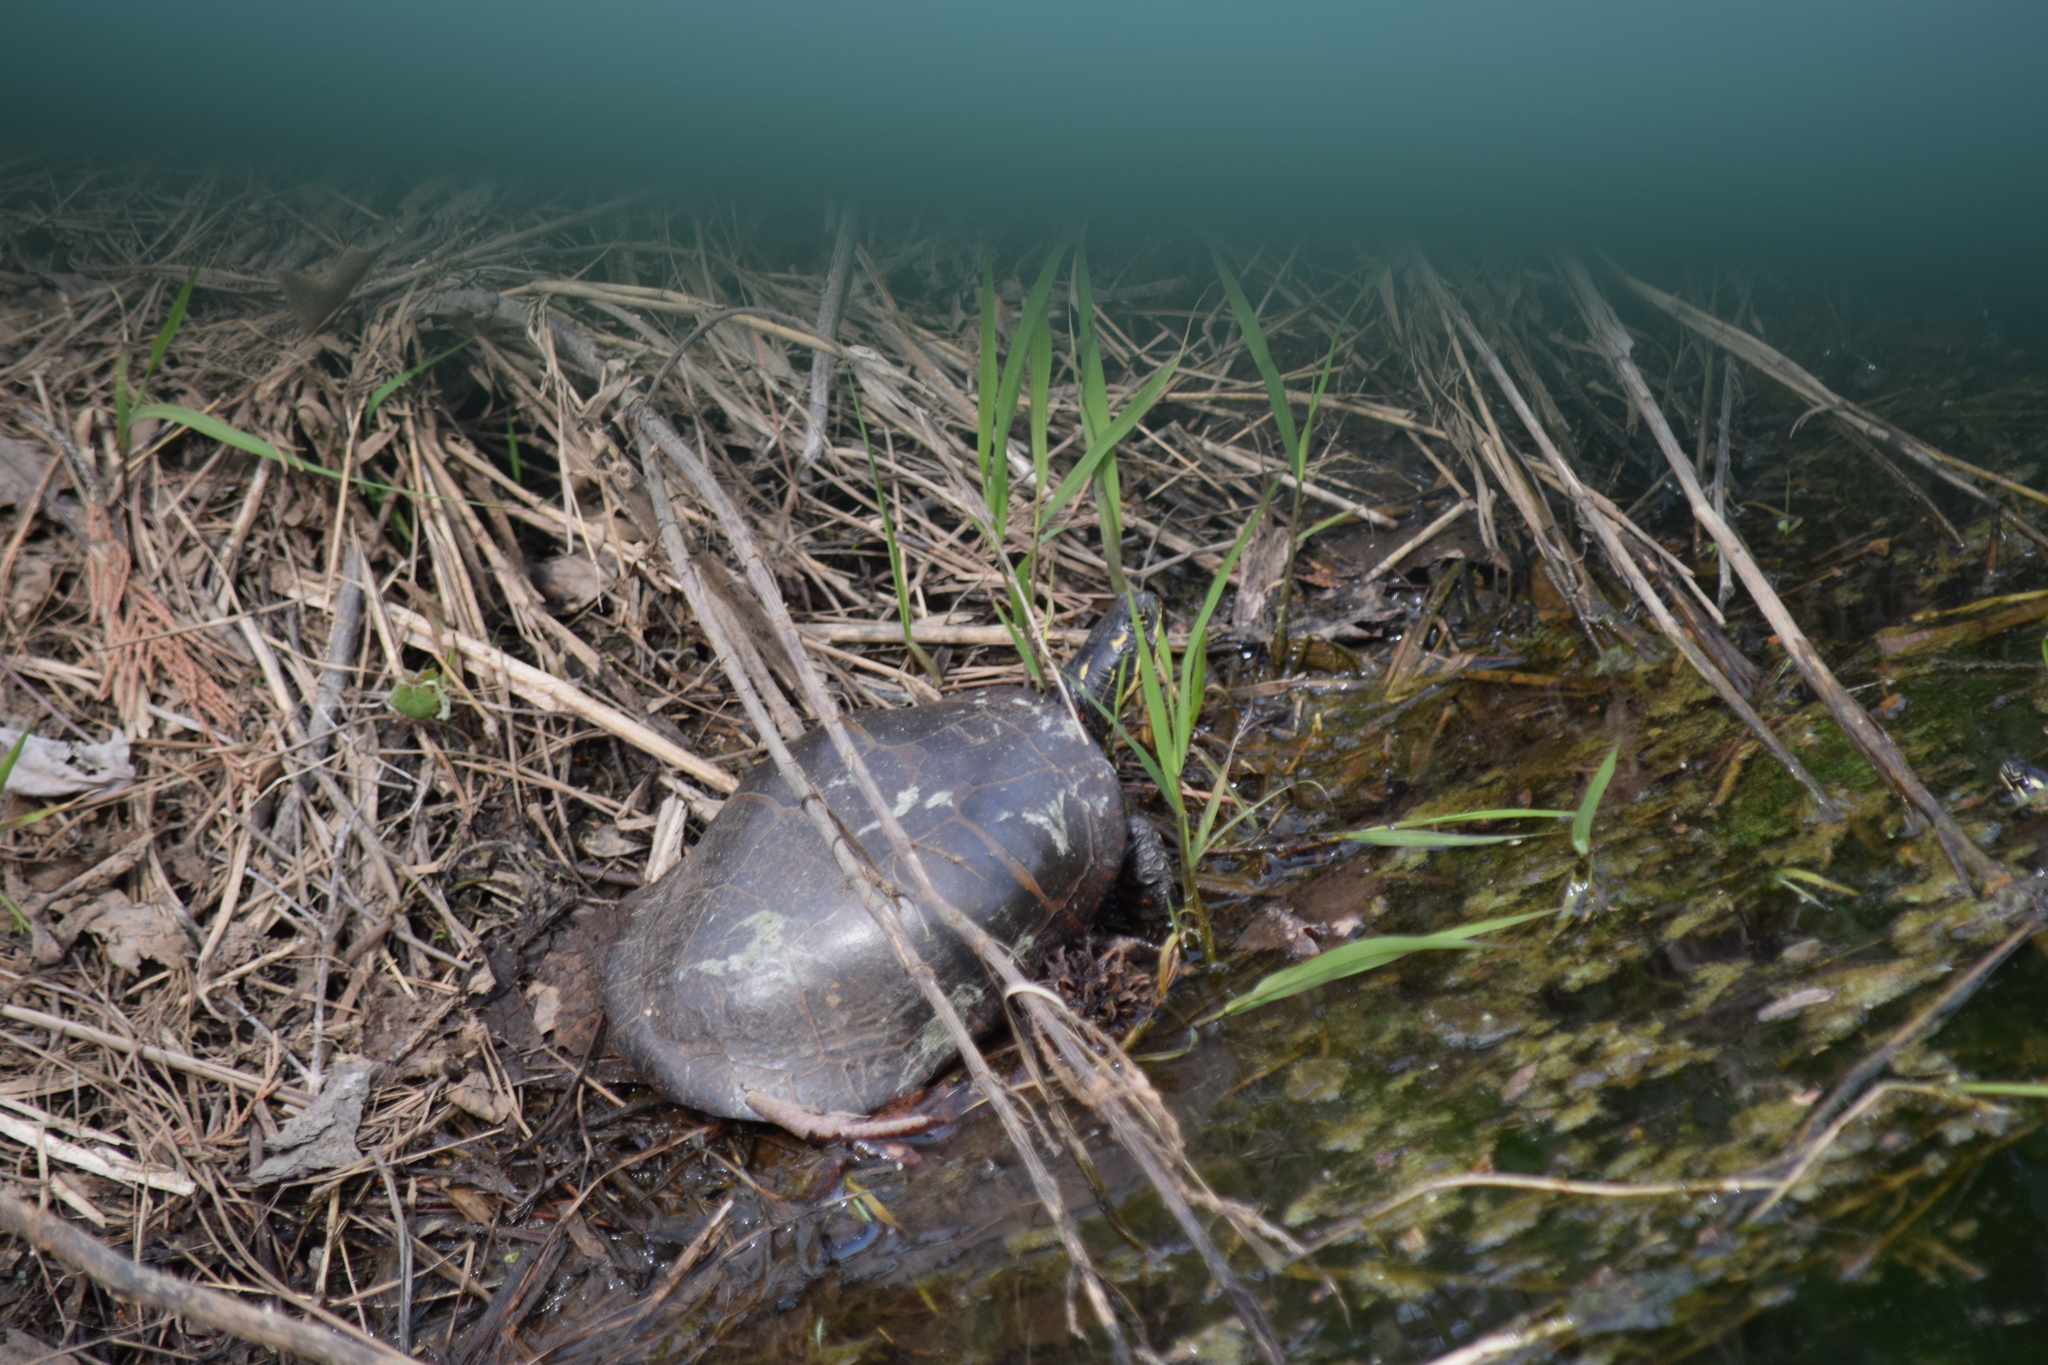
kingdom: Animalia
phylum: Chordata
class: Testudines
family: Emydidae
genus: Chrysemys
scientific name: Chrysemys picta
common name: Painted turtle
